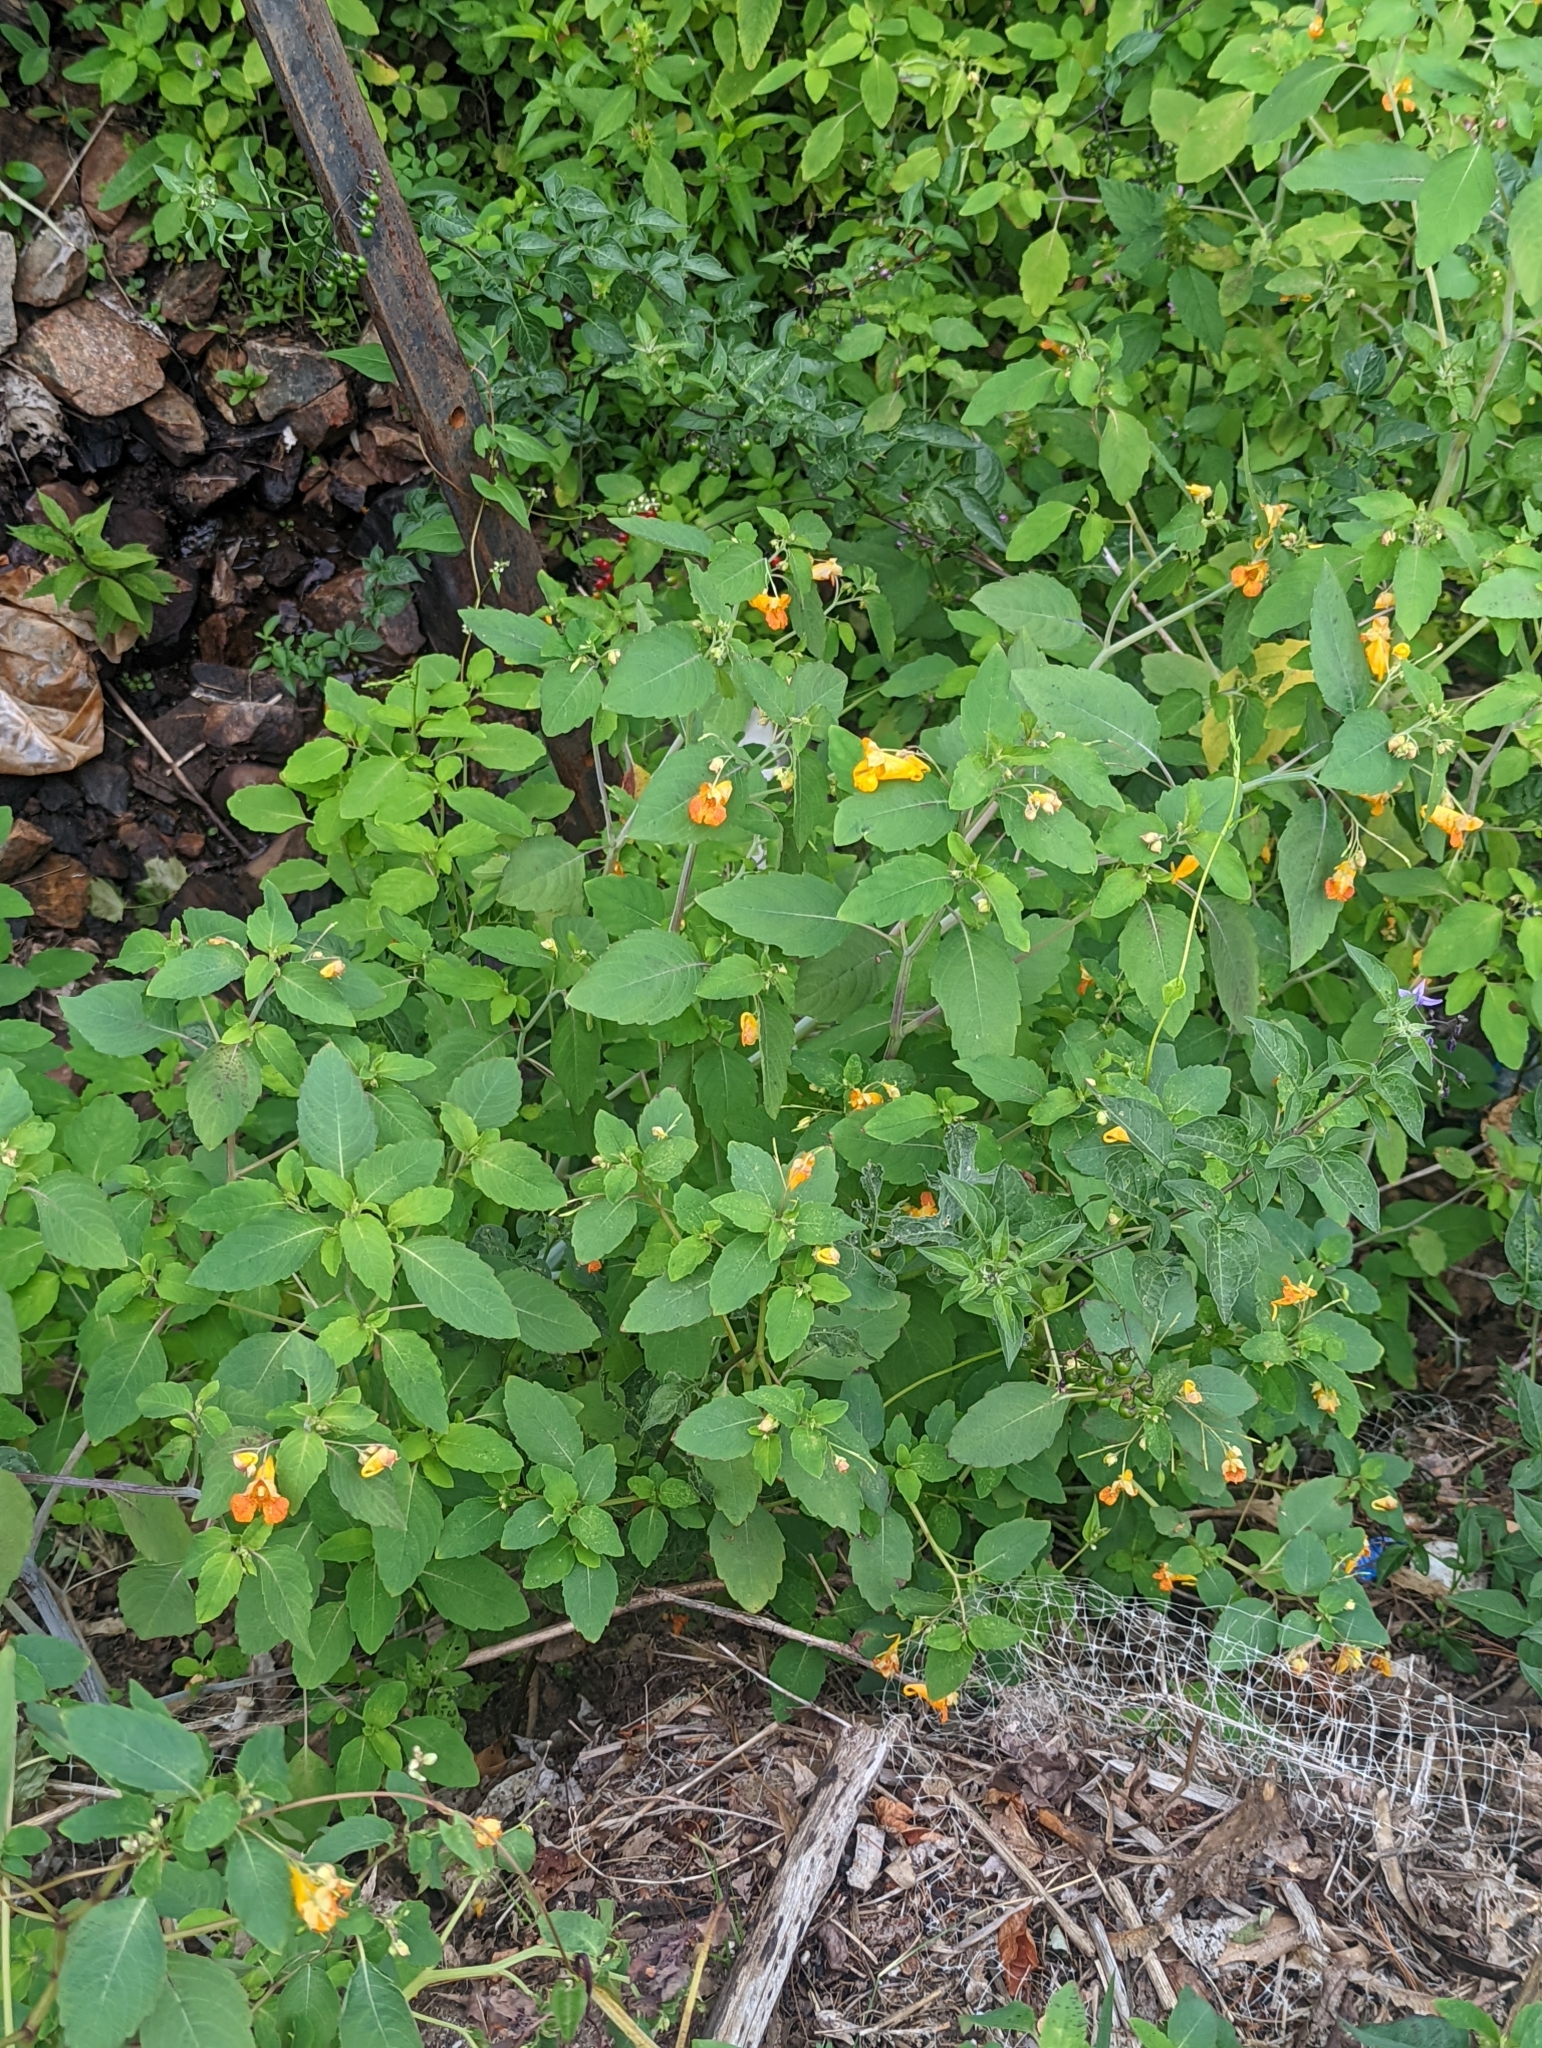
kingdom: Plantae
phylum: Tracheophyta
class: Magnoliopsida
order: Ericales
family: Balsaminaceae
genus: Impatiens
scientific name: Impatiens capensis
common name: Orange balsam
